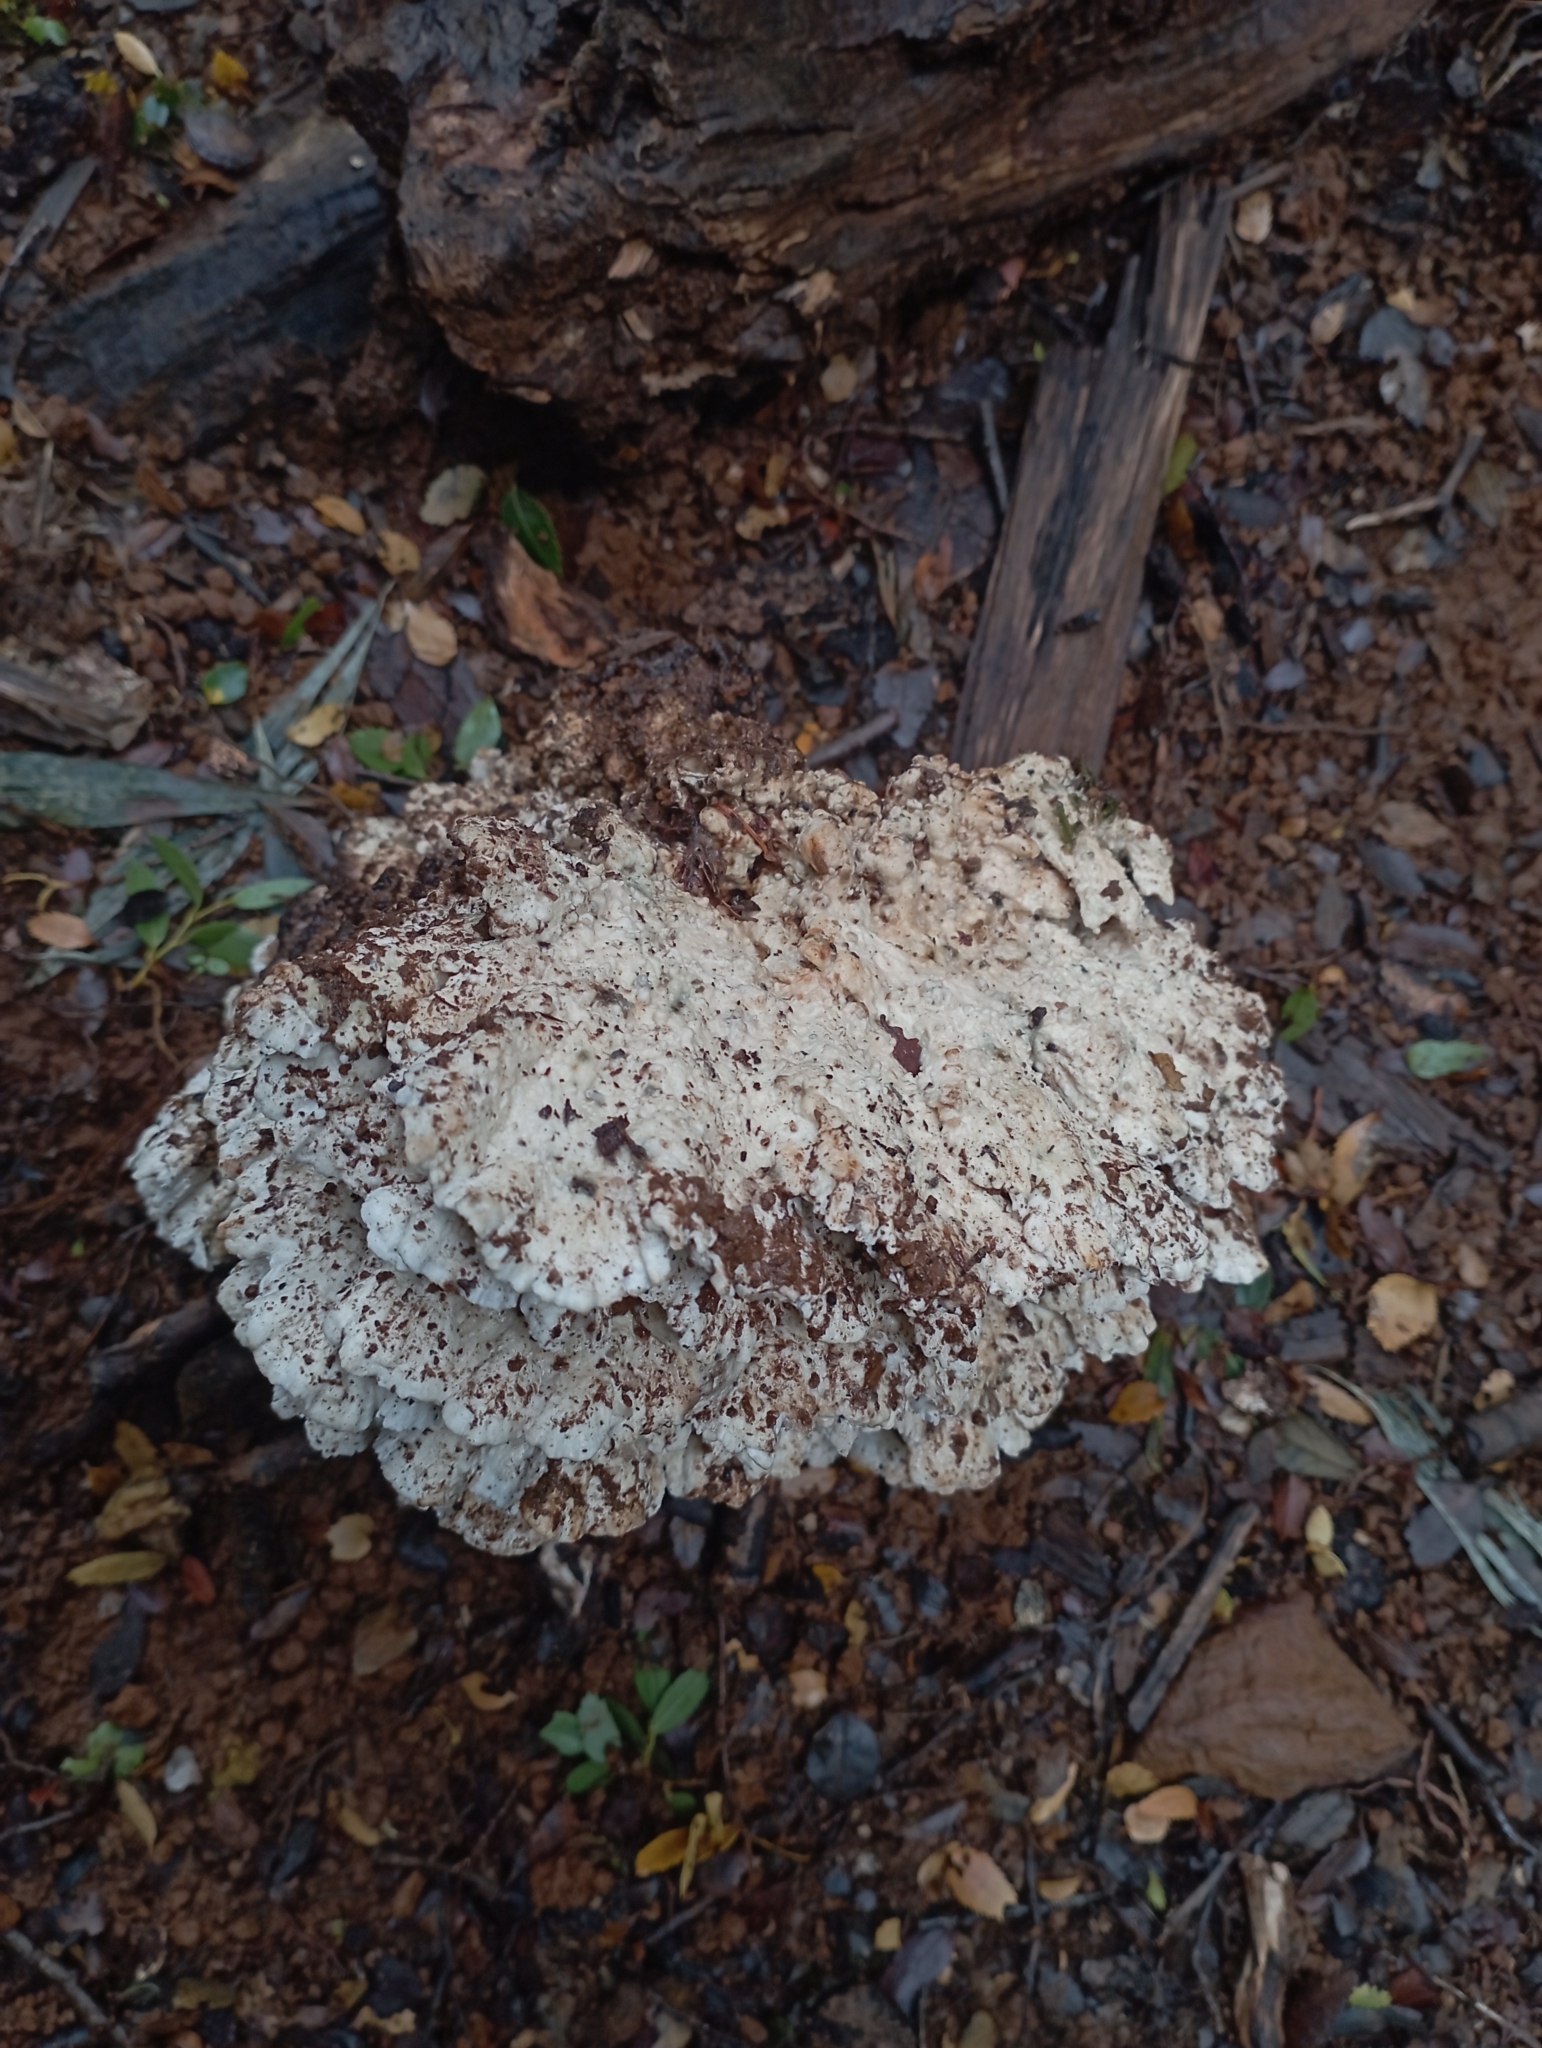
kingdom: Fungi
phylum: Basidiomycota
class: Agaricomycetes
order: Polyporales
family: Dacryobolaceae
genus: Postia
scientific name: Postia punctata
